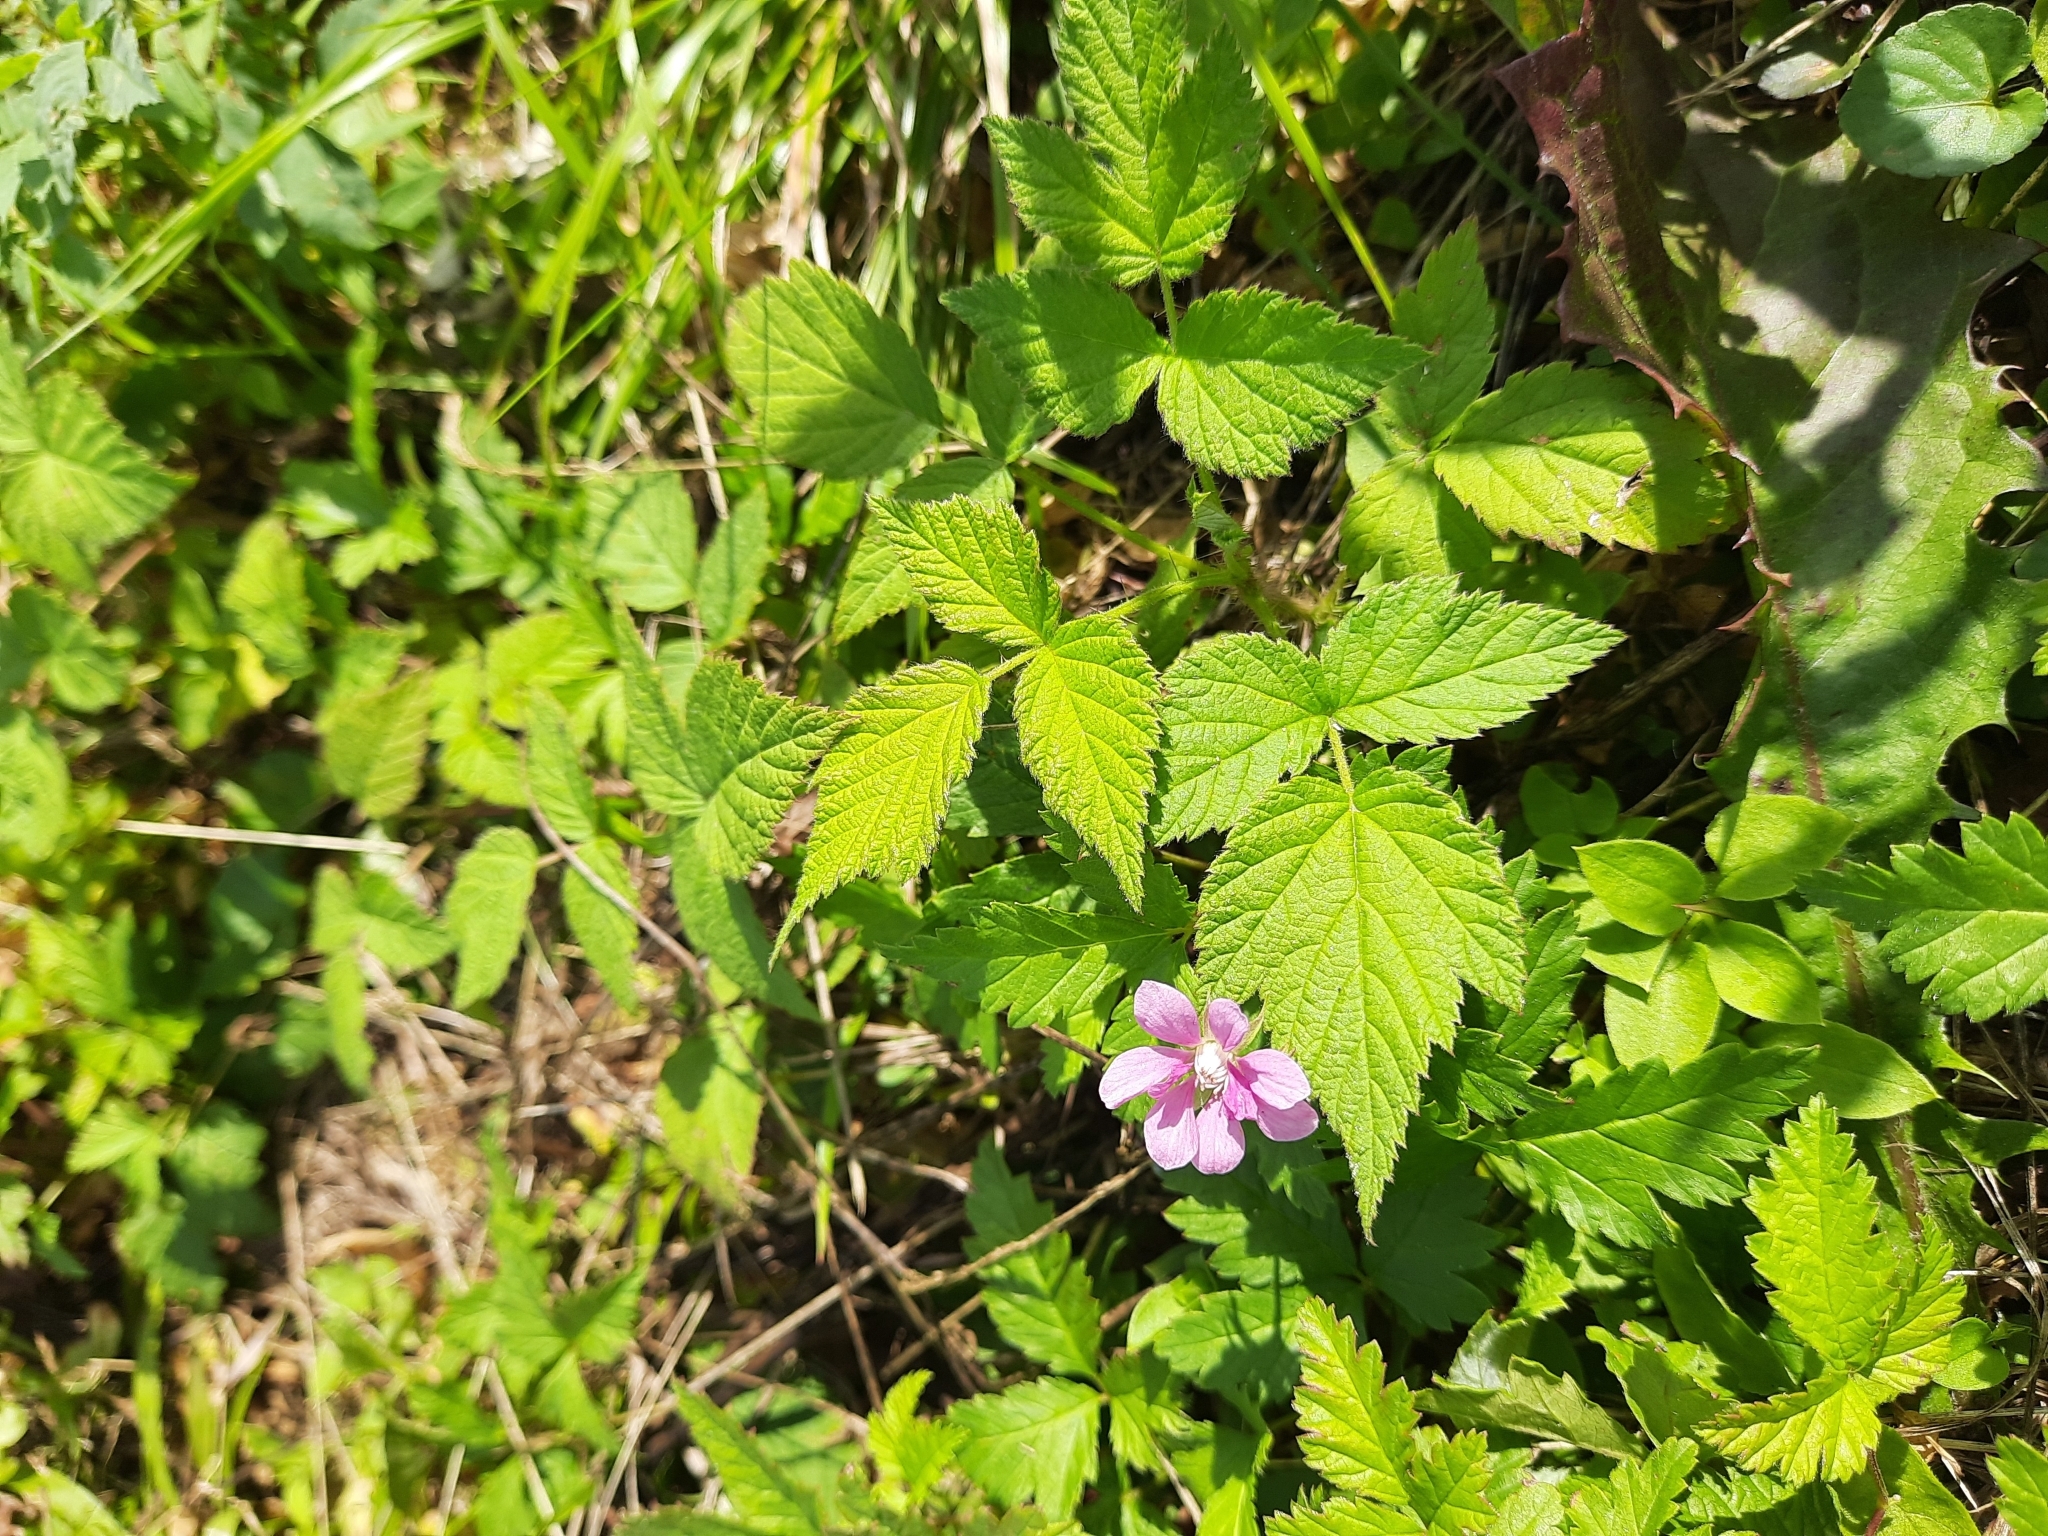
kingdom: Plantae
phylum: Tracheophyta
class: Magnoliopsida
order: Rosales
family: Rosaceae
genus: Rubus
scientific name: Rubus arcticus
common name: Arctic bramble
